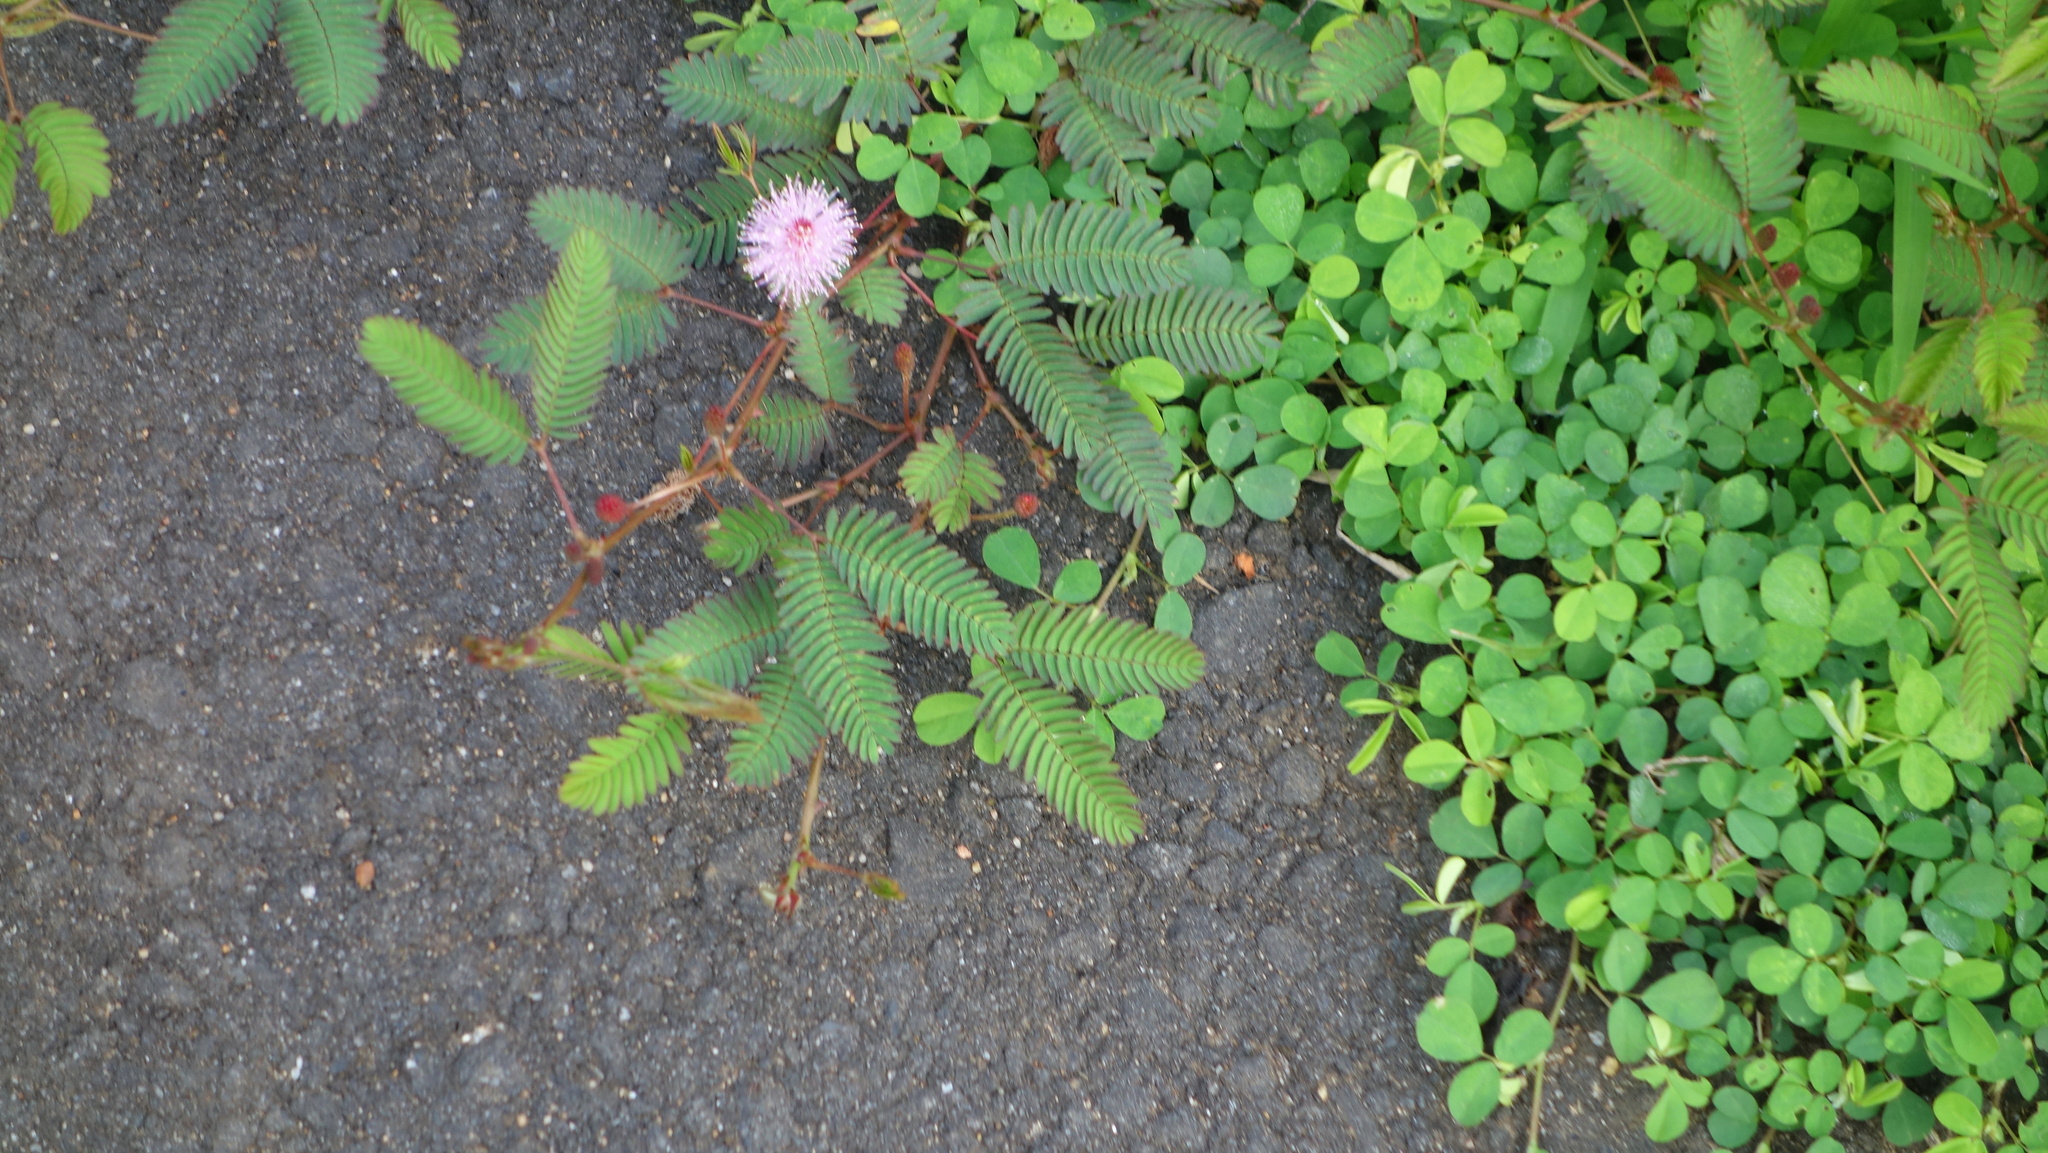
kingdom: Plantae
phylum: Tracheophyta
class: Magnoliopsida
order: Fabales
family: Fabaceae
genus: Mimosa
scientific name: Mimosa pudica
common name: Sensitive plant
